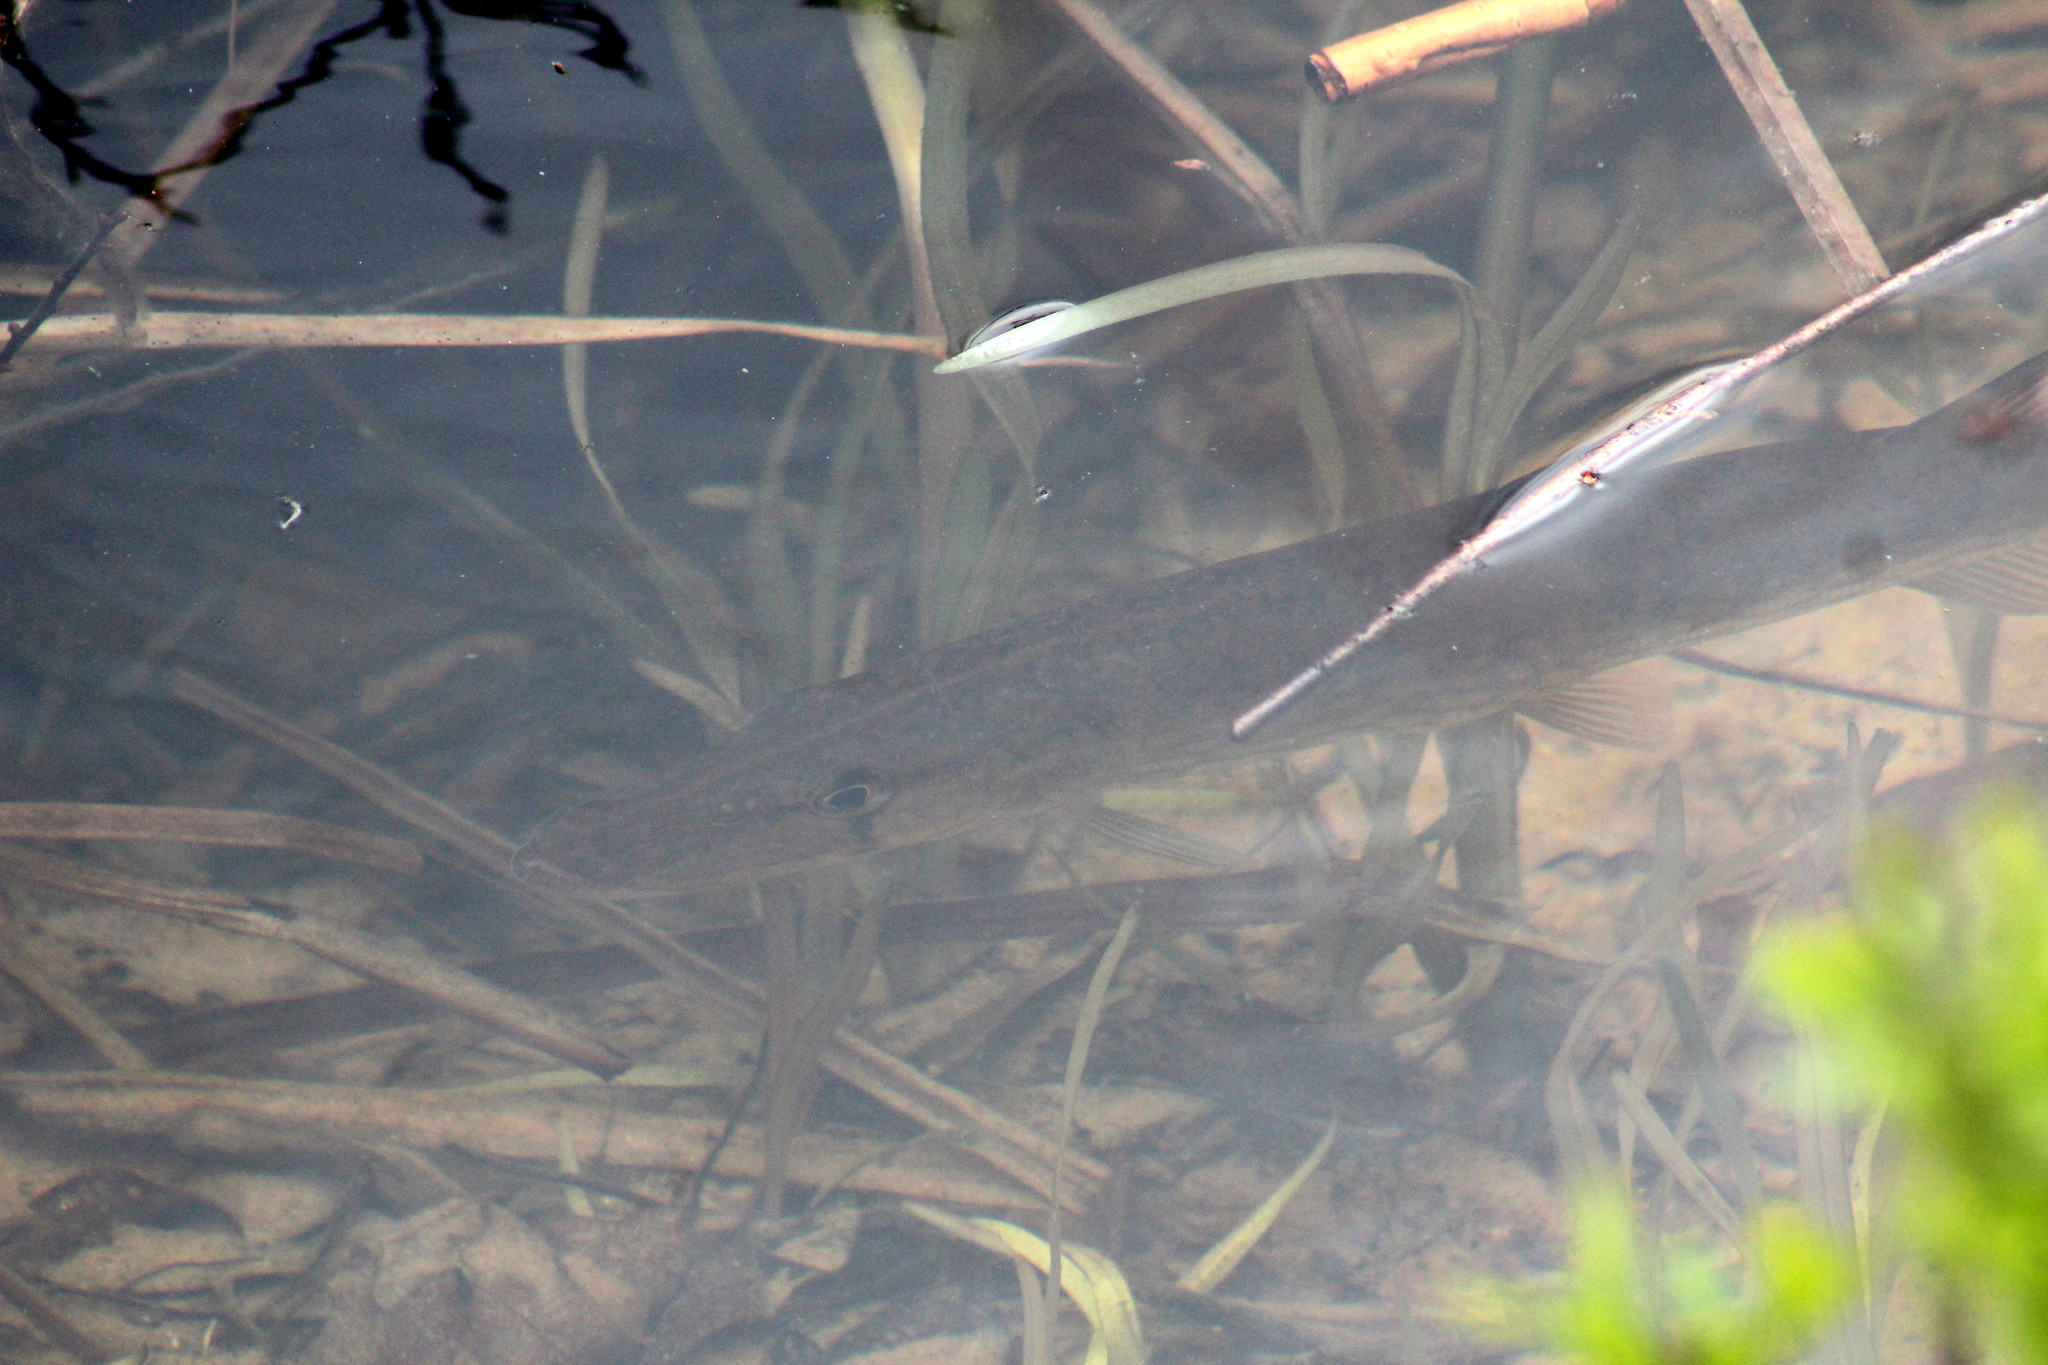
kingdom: Animalia
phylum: Chordata
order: Esociformes
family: Esocidae
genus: Esox
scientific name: Esox niger
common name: Chain pickerel
